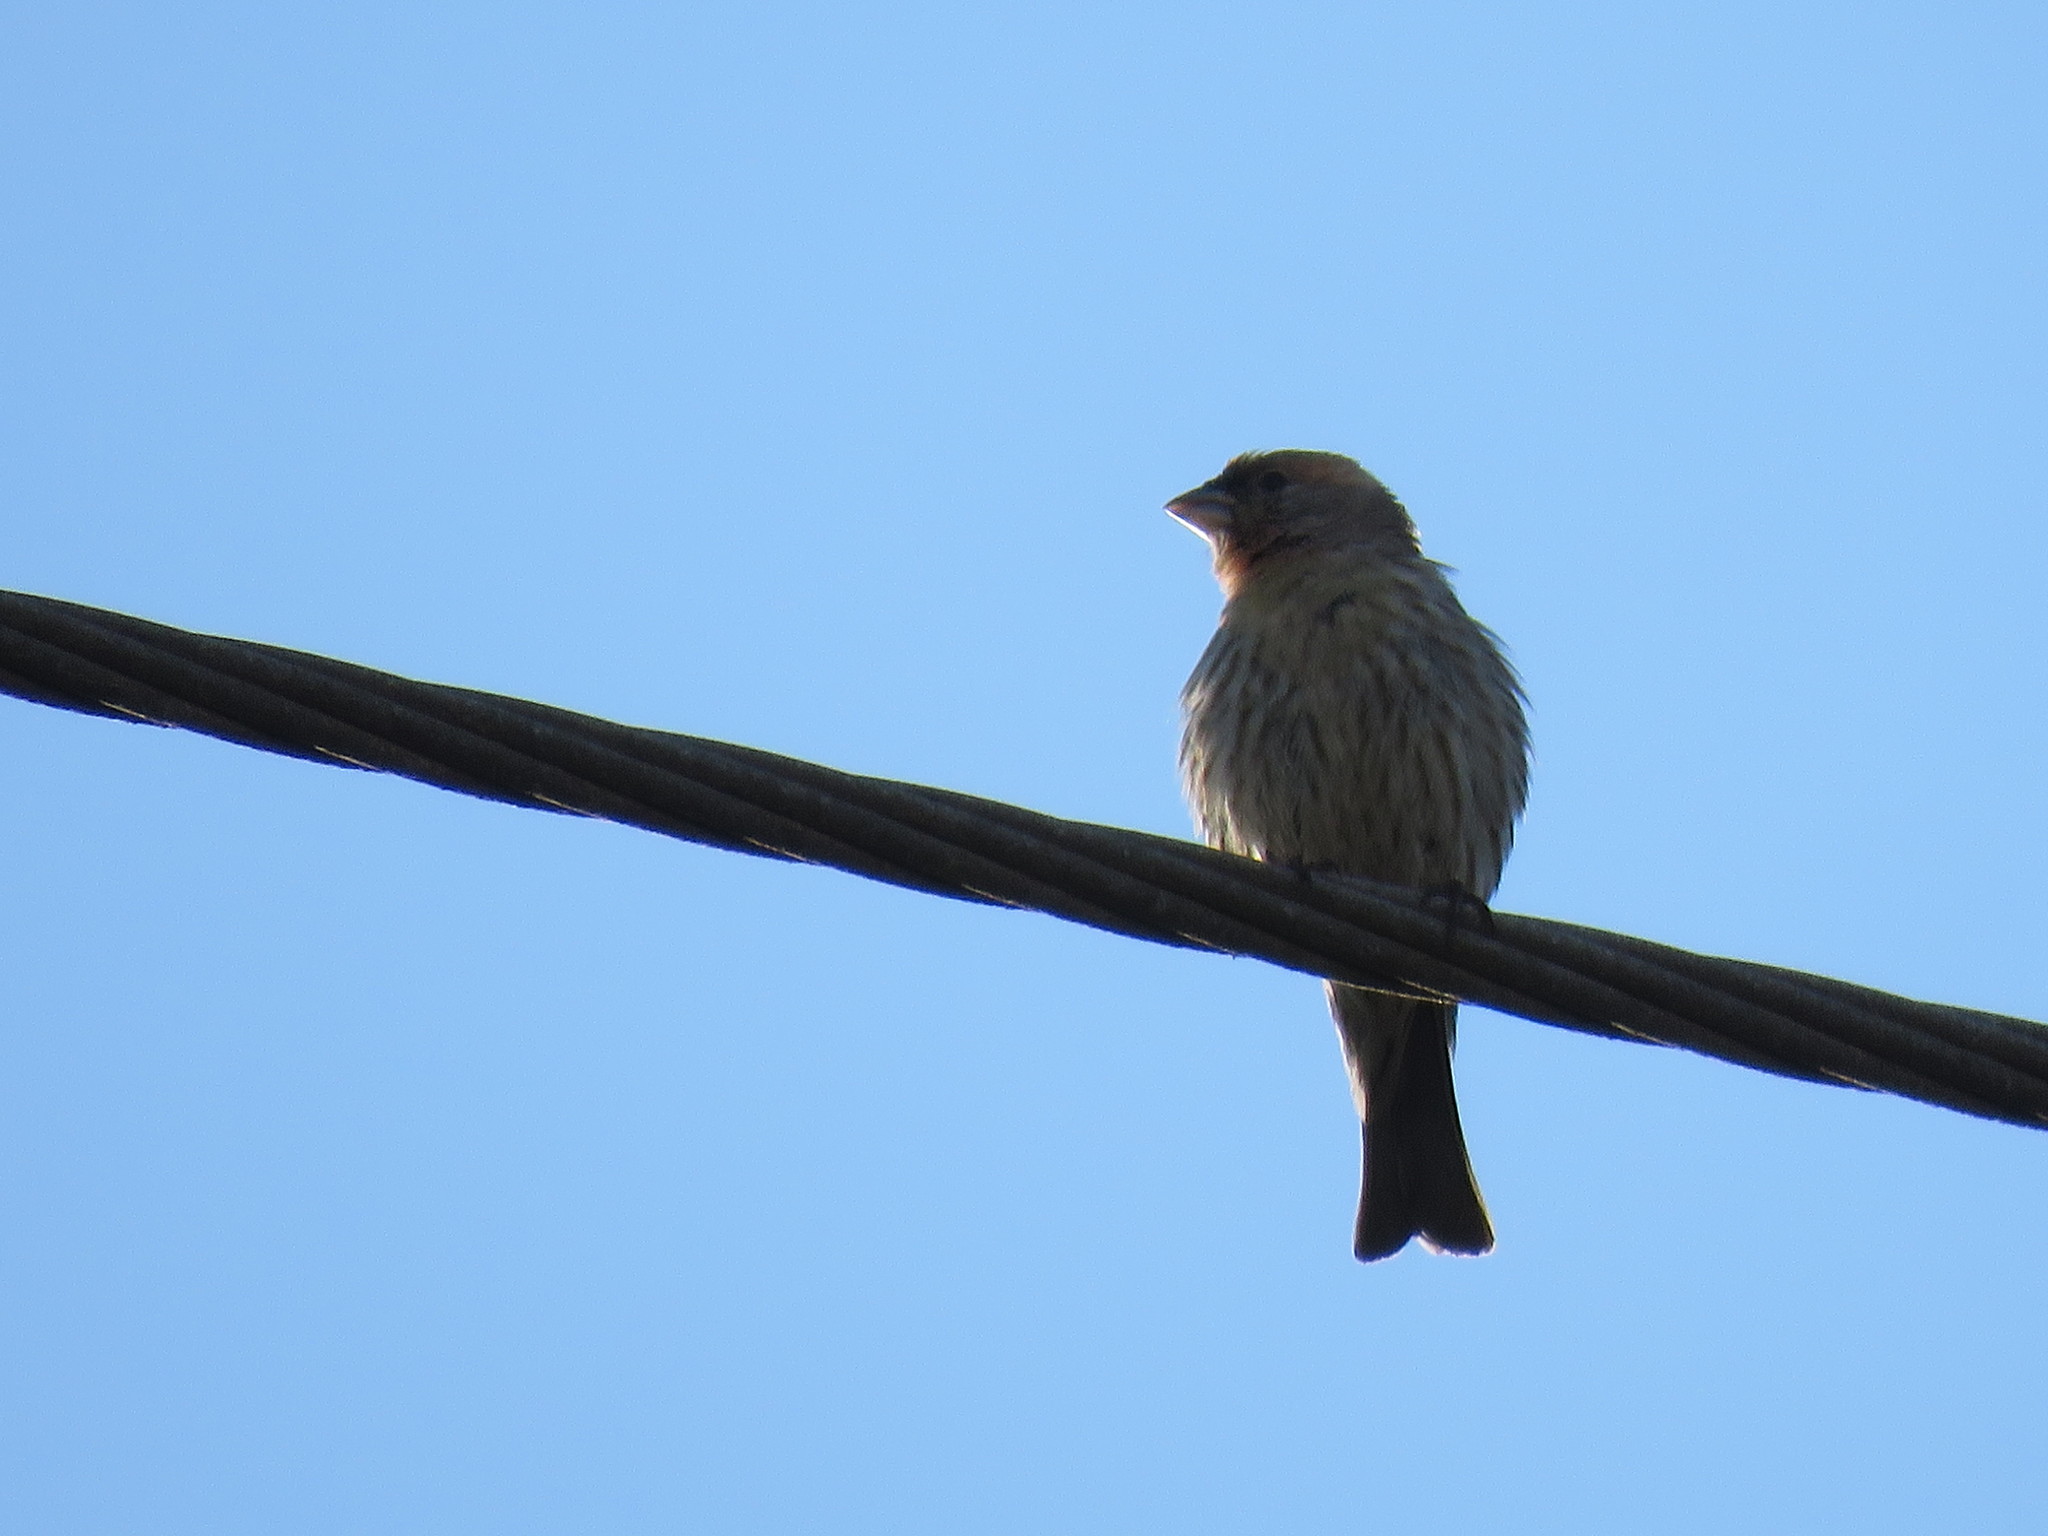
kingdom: Animalia
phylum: Chordata
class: Aves
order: Passeriformes
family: Fringillidae
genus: Haemorhous
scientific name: Haemorhous mexicanus
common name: House finch
